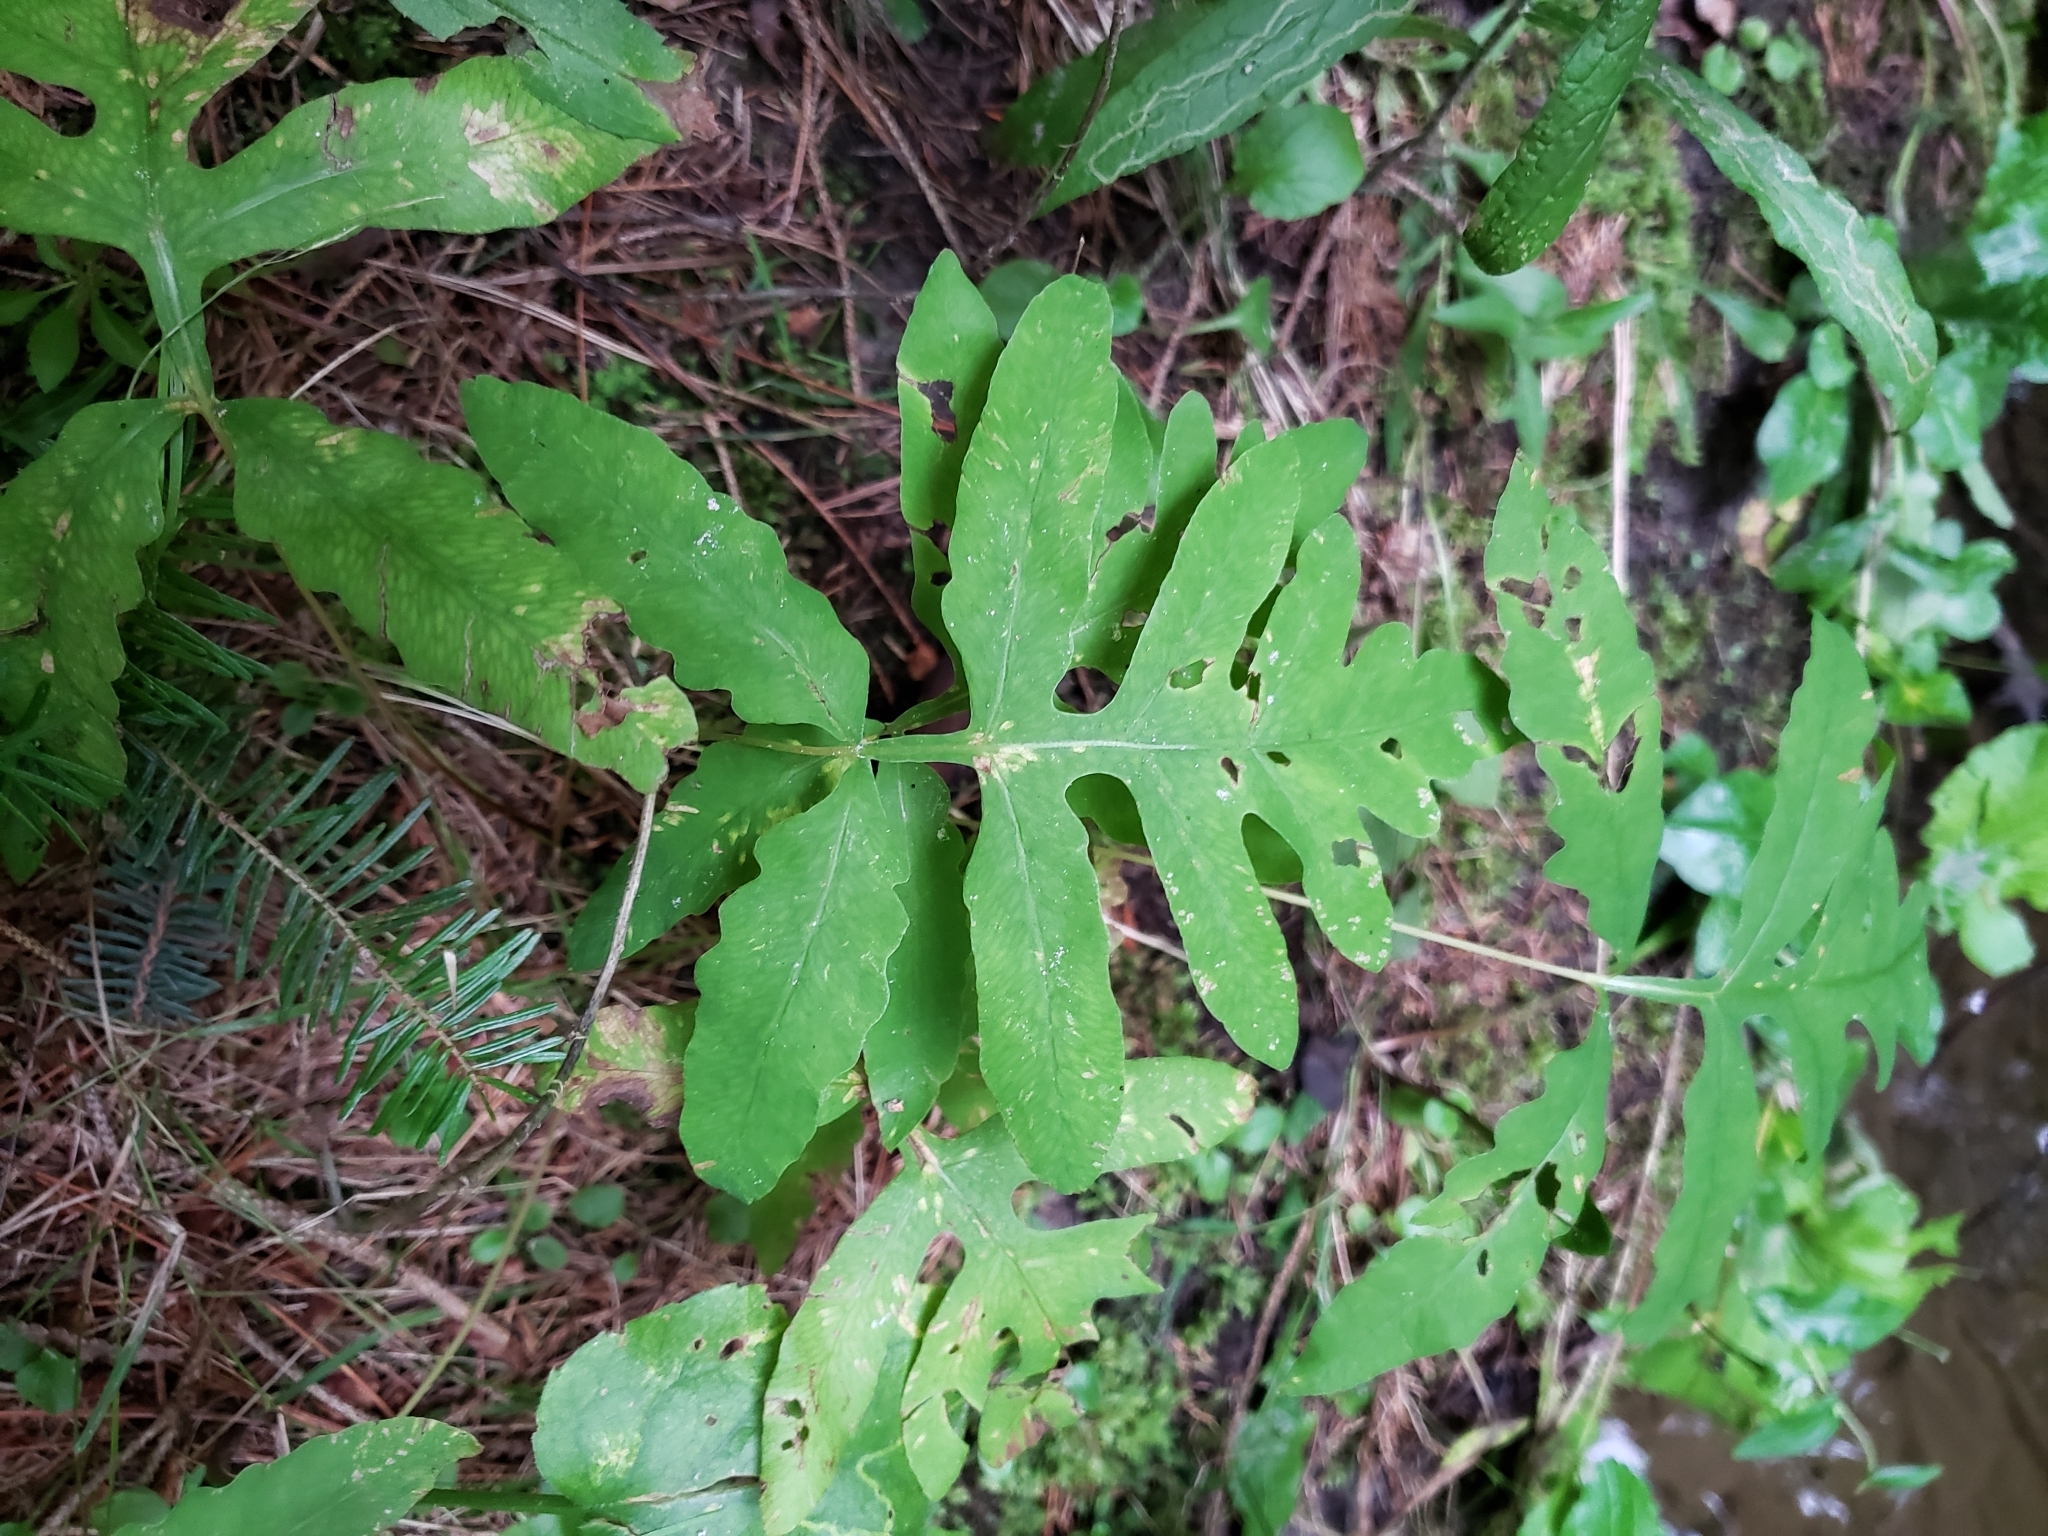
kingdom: Plantae
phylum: Tracheophyta
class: Polypodiopsida
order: Polypodiales
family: Onocleaceae
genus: Onoclea
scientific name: Onoclea sensibilis
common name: Sensitive fern
